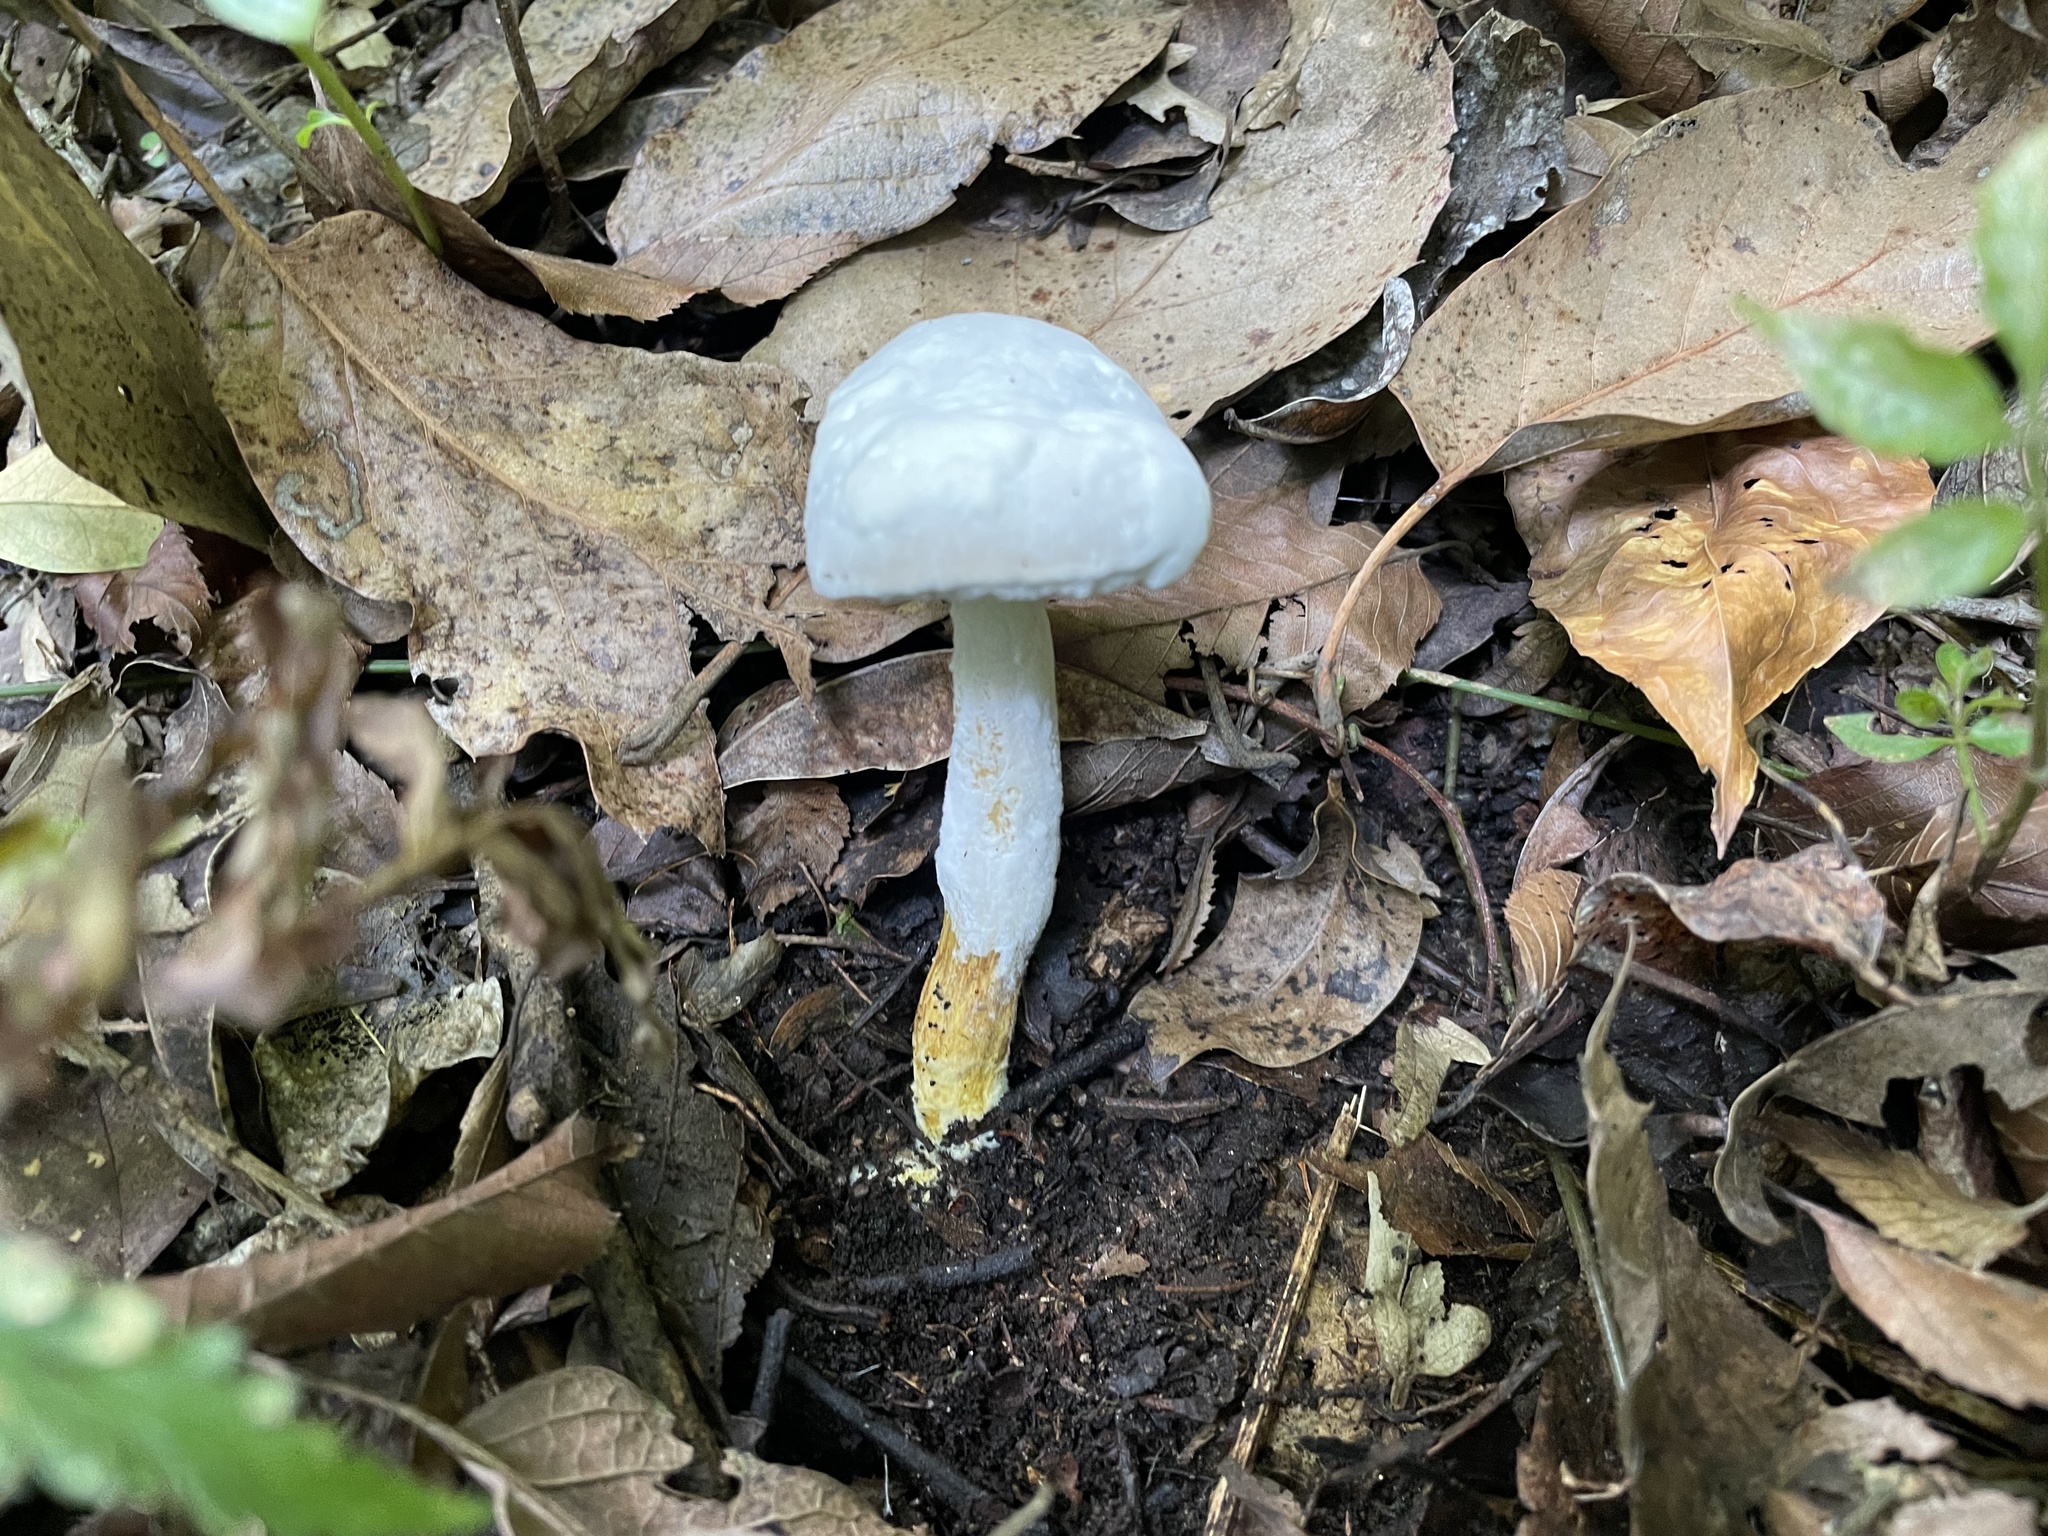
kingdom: Fungi
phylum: Ascomycota
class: Sordariomycetes
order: Hypocreales
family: Hypocreaceae
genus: Hypomyces
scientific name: Hypomyces chrysospermus
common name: Bolete mould
